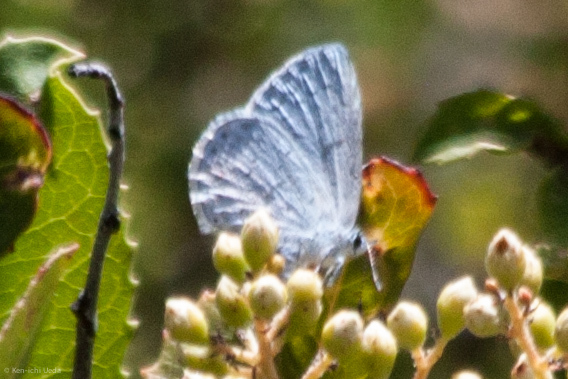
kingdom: Animalia
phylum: Arthropoda
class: Insecta
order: Lepidoptera
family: Lycaenidae
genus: Celastrina
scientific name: Celastrina ladon
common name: Spring azure
